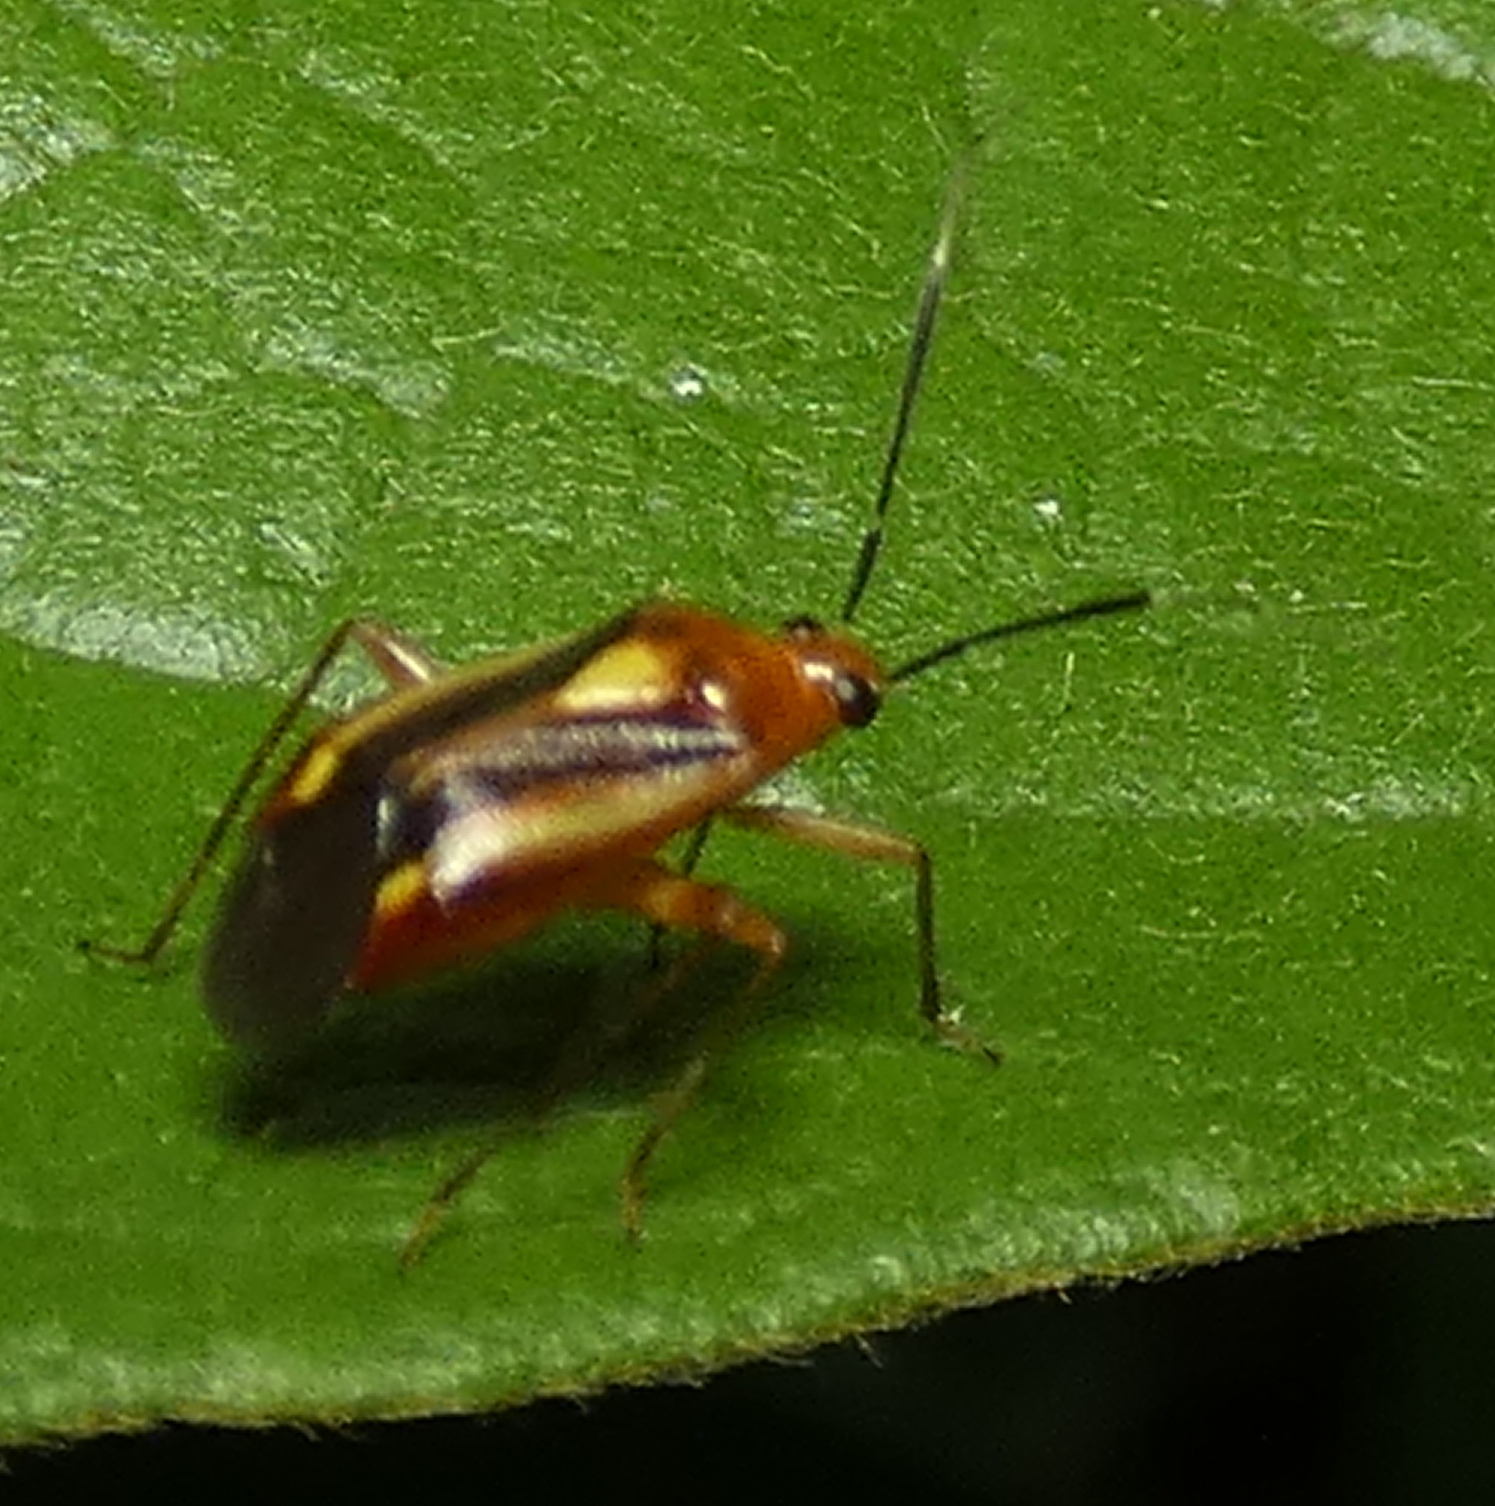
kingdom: Animalia
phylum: Arthropoda
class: Insecta
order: Hemiptera
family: Miridae
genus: Horciasinus
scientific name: Horciasinus signoreti
